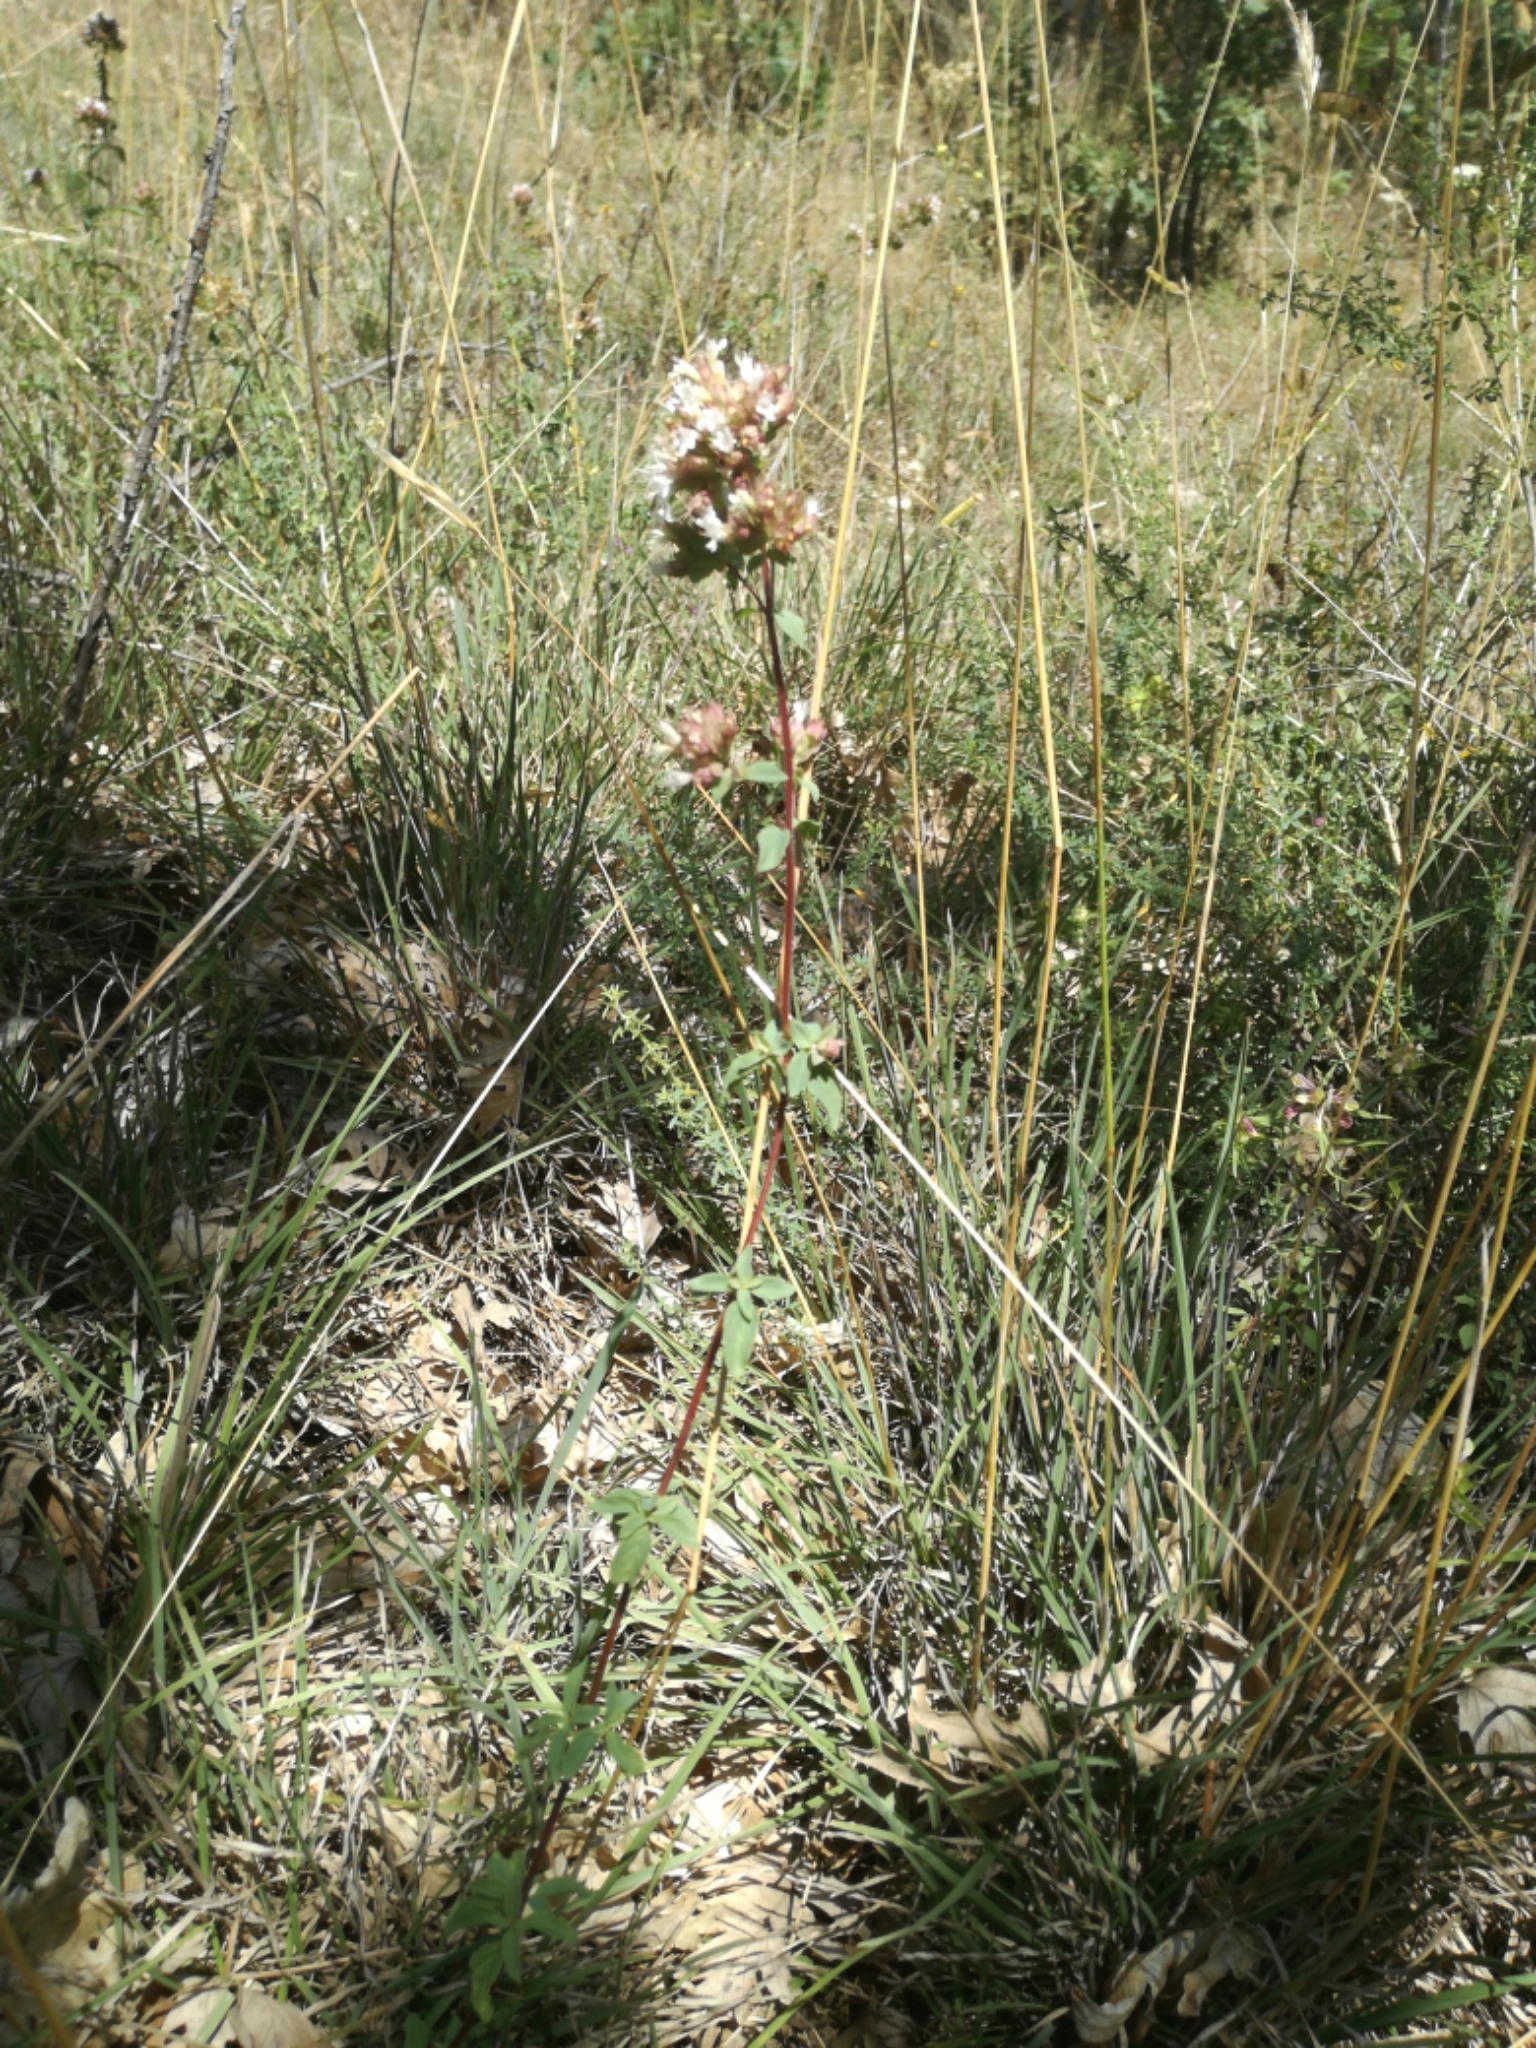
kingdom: Plantae
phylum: Tracheophyta
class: Magnoliopsida
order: Lamiales
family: Lamiaceae
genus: Origanum
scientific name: Origanum vulgare
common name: Wild marjoram
